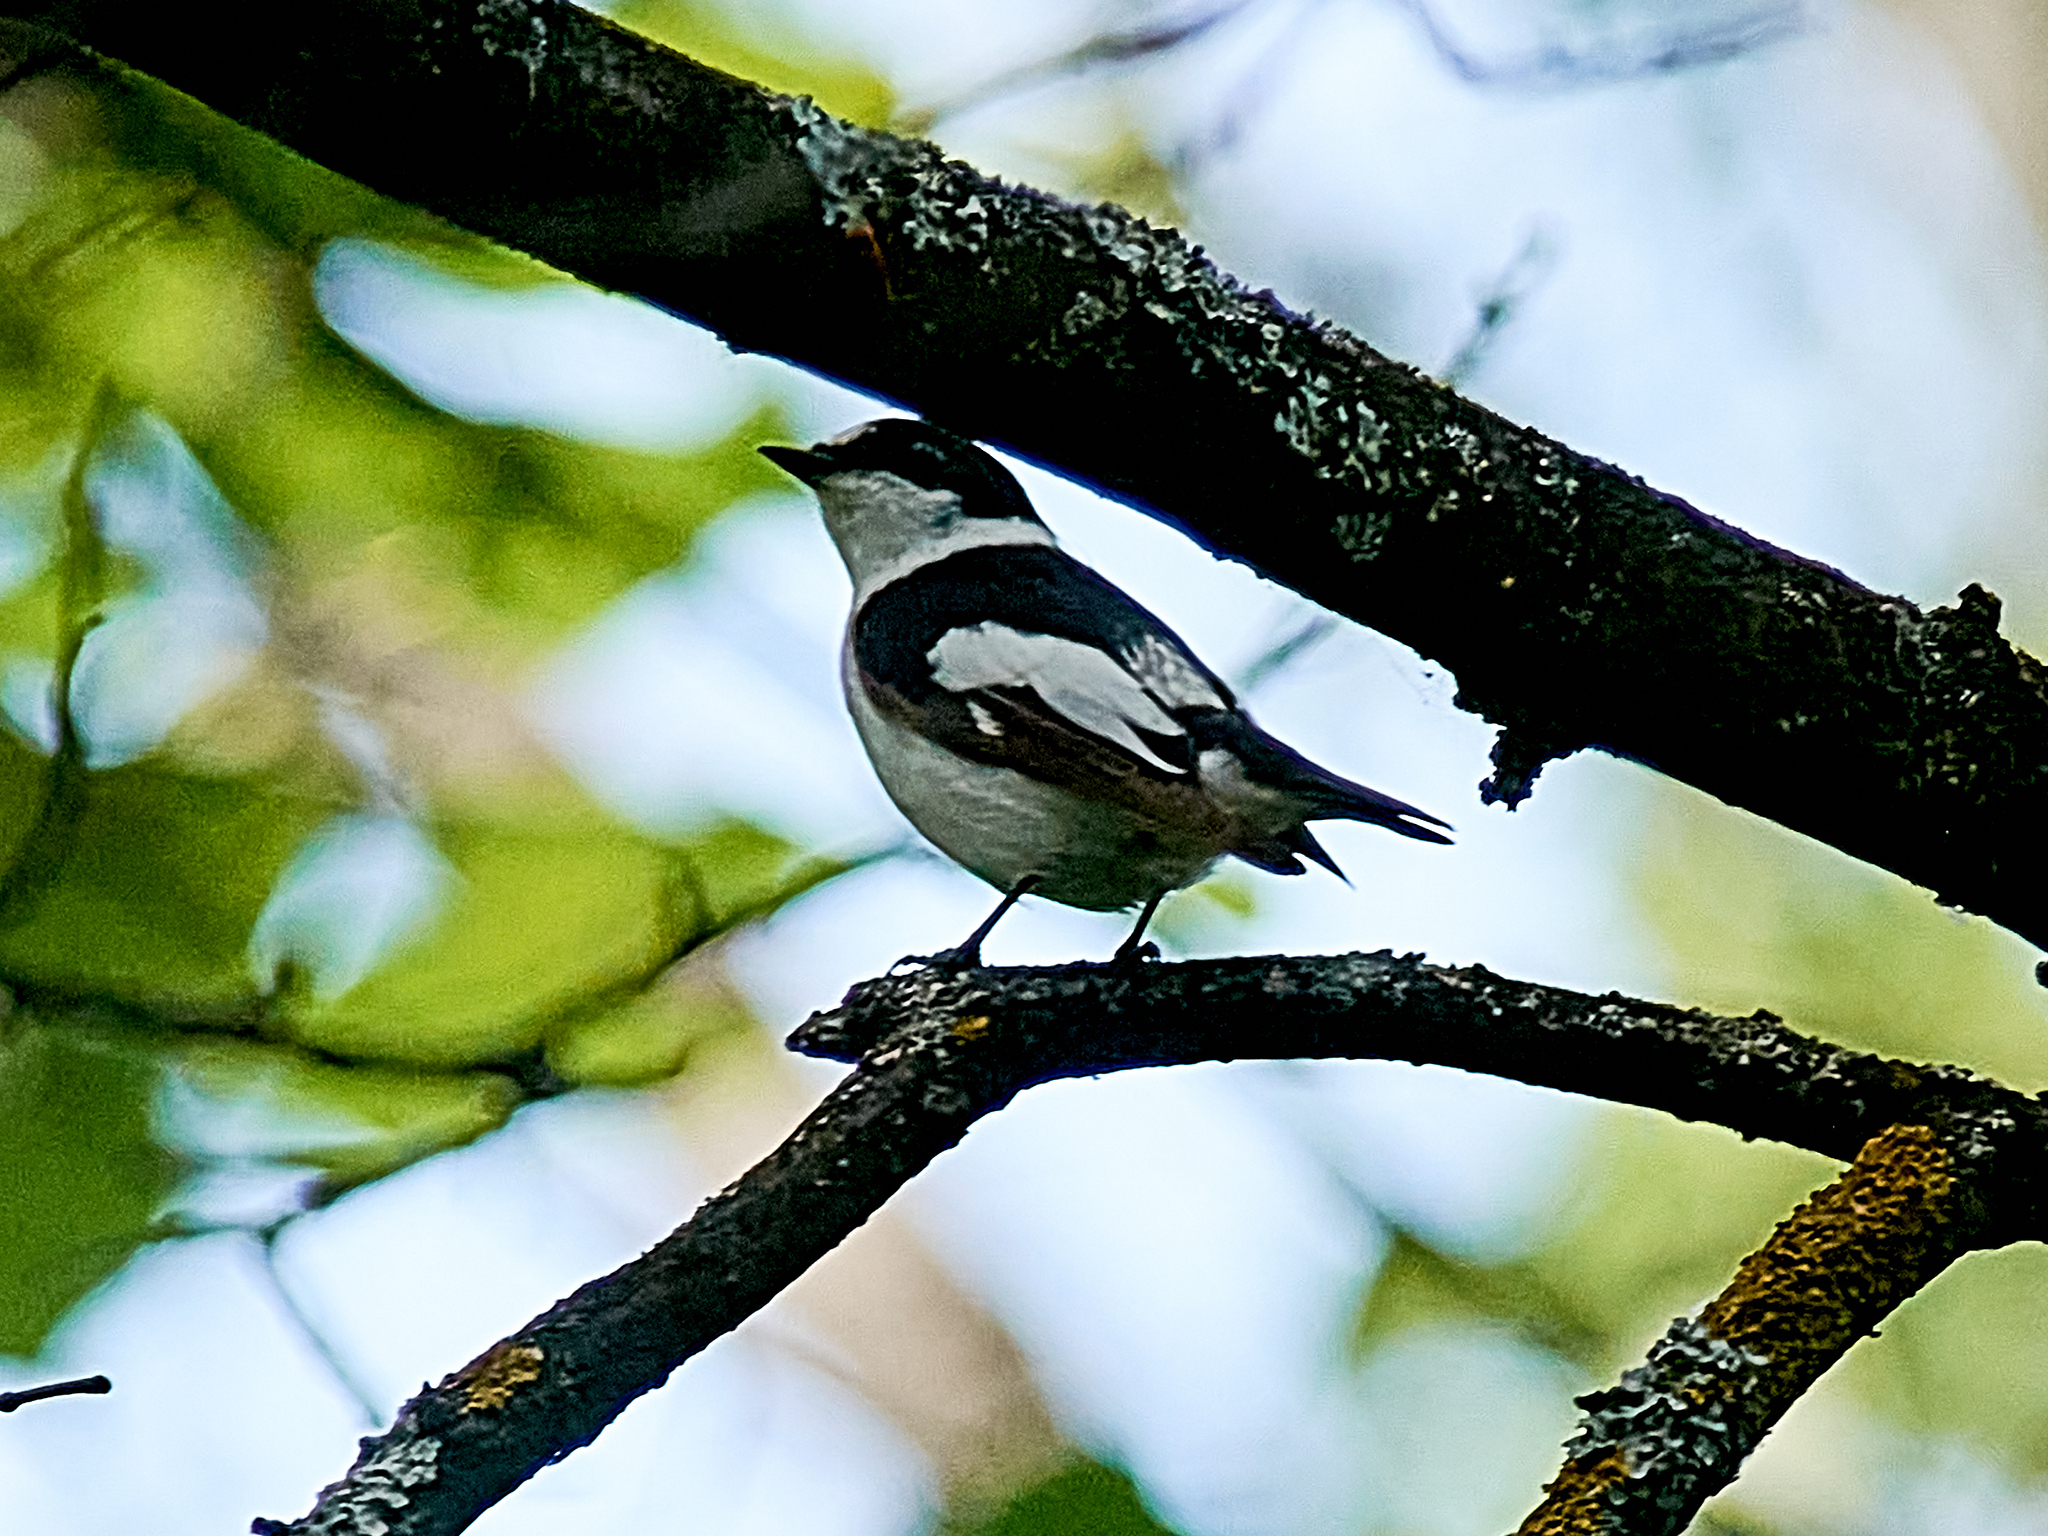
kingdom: Animalia
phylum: Chordata
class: Aves
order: Passeriformes
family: Muscicapidae
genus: Ficedula
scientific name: Ficedula albicollis
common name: Collared flycatcher
